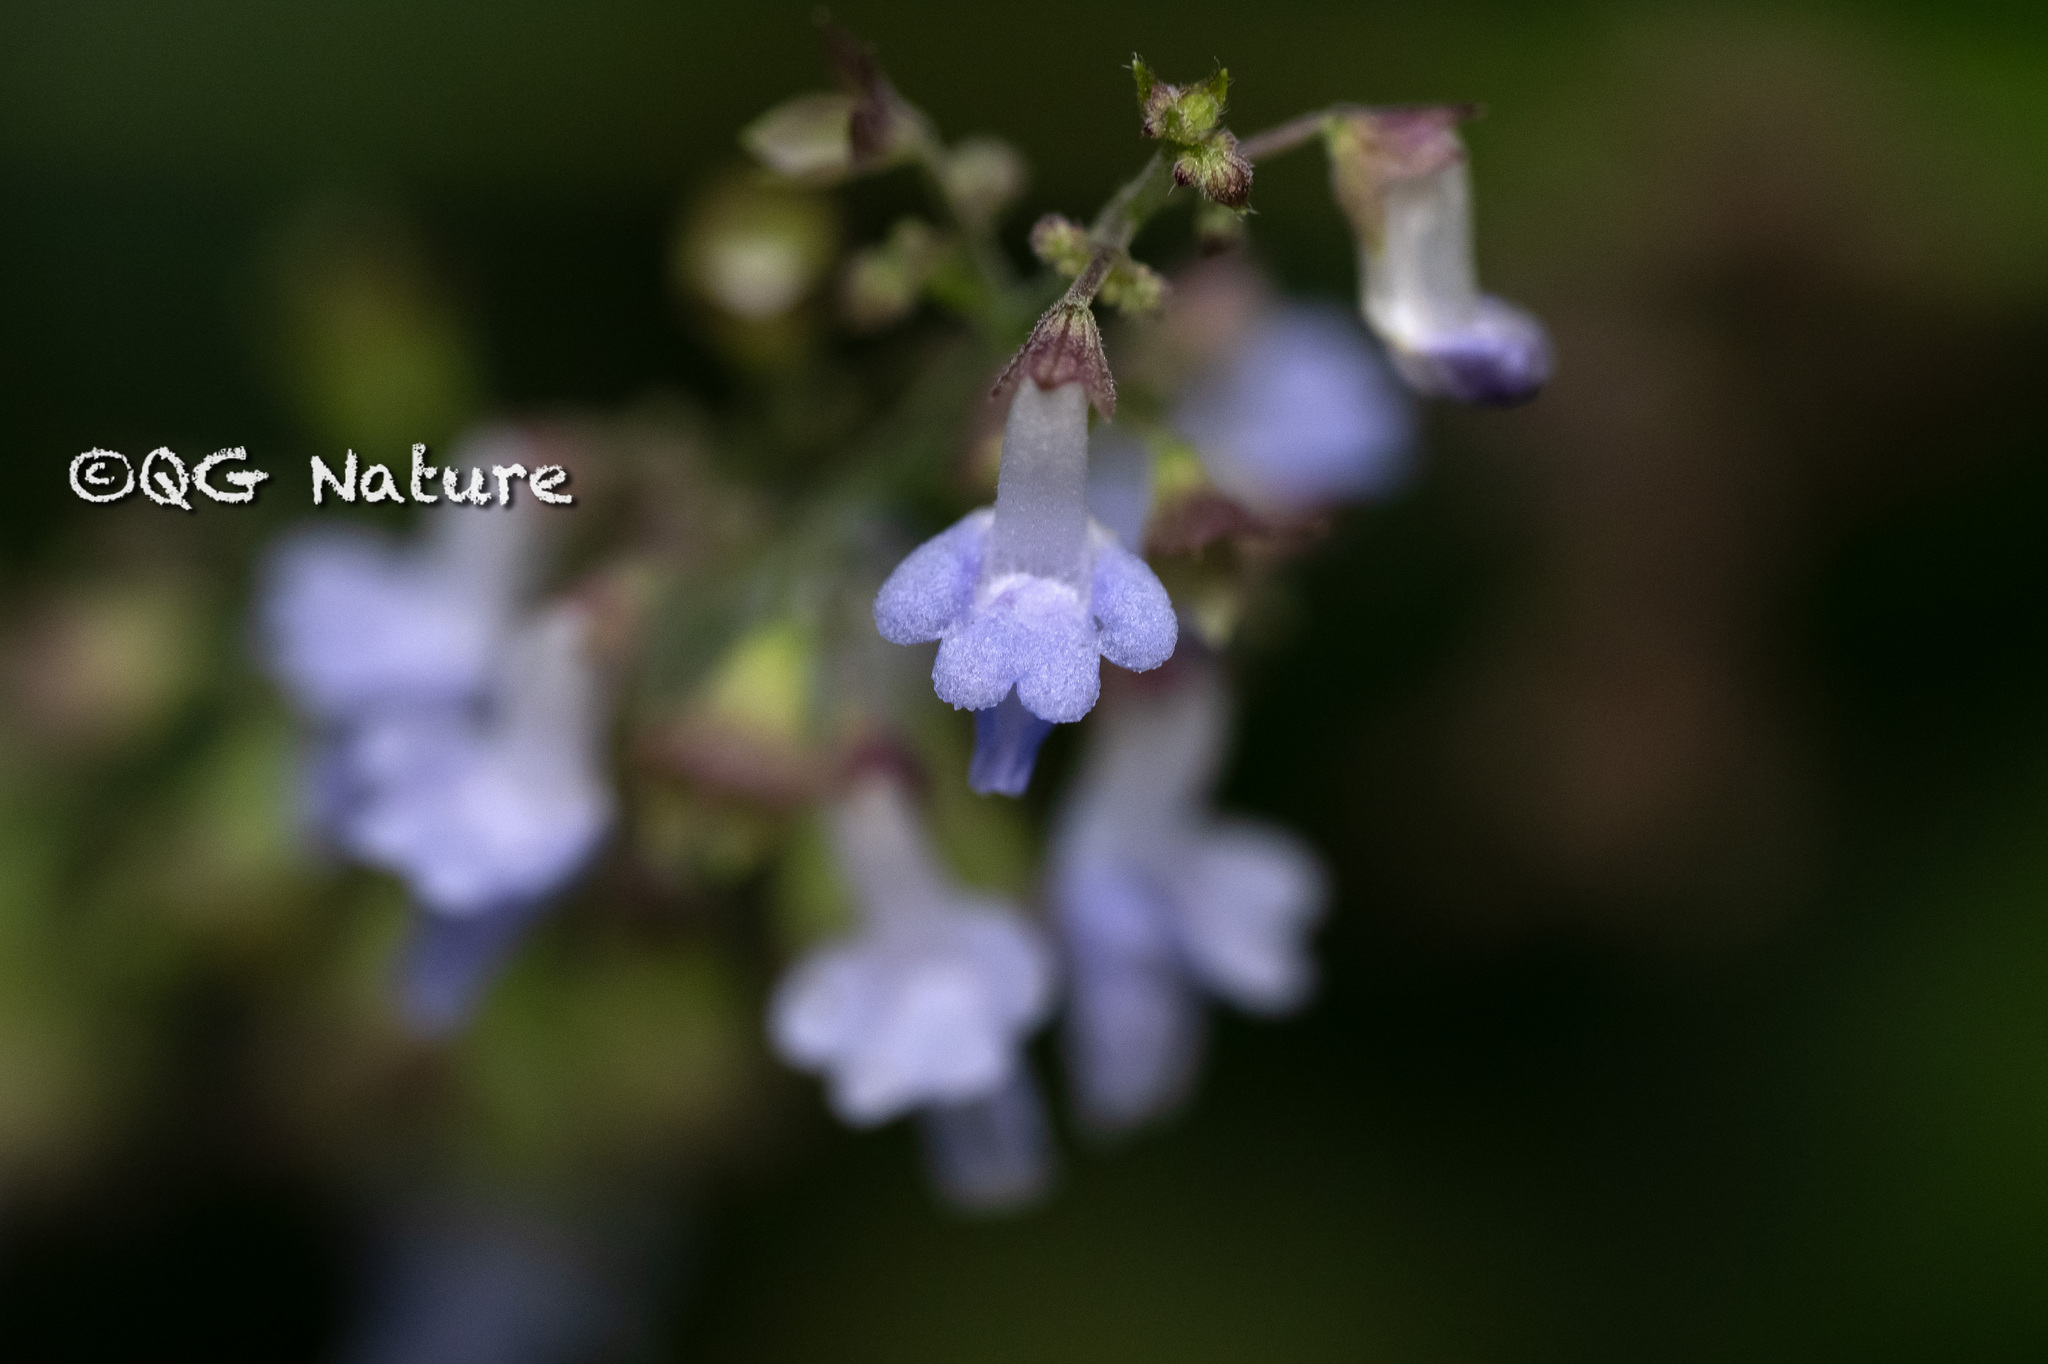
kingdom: Plantae
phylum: Tracheophyta
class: Magnoliopsida
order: Lamiales
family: Lamiaceae
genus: Isodon
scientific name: Isodon amethystoides
